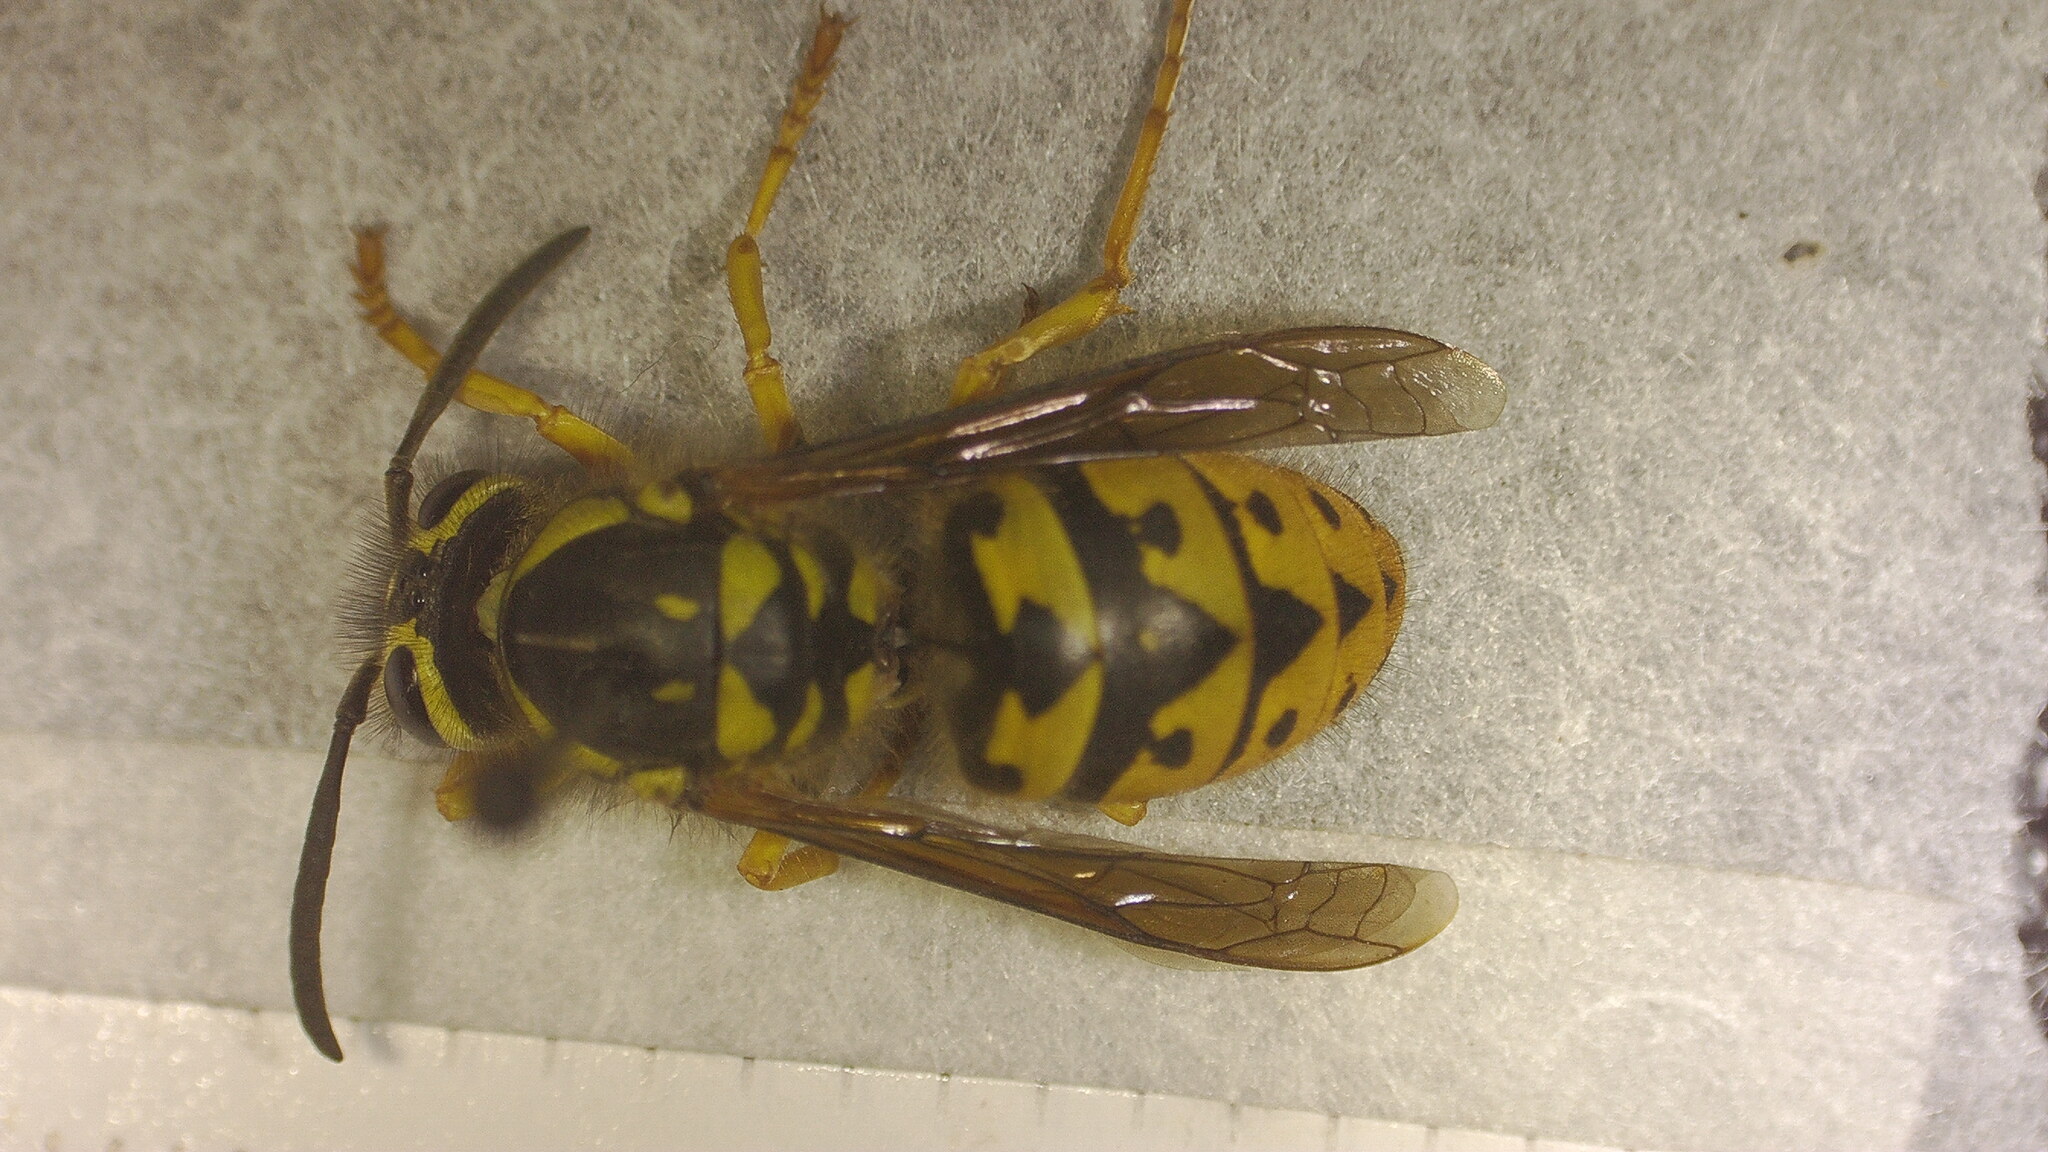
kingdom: Animalia
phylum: Arthropoda
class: Insecta
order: Hymenoptera
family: Vespidae
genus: Vespula
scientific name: Vespula pensylvanica
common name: Western yellowjacket
